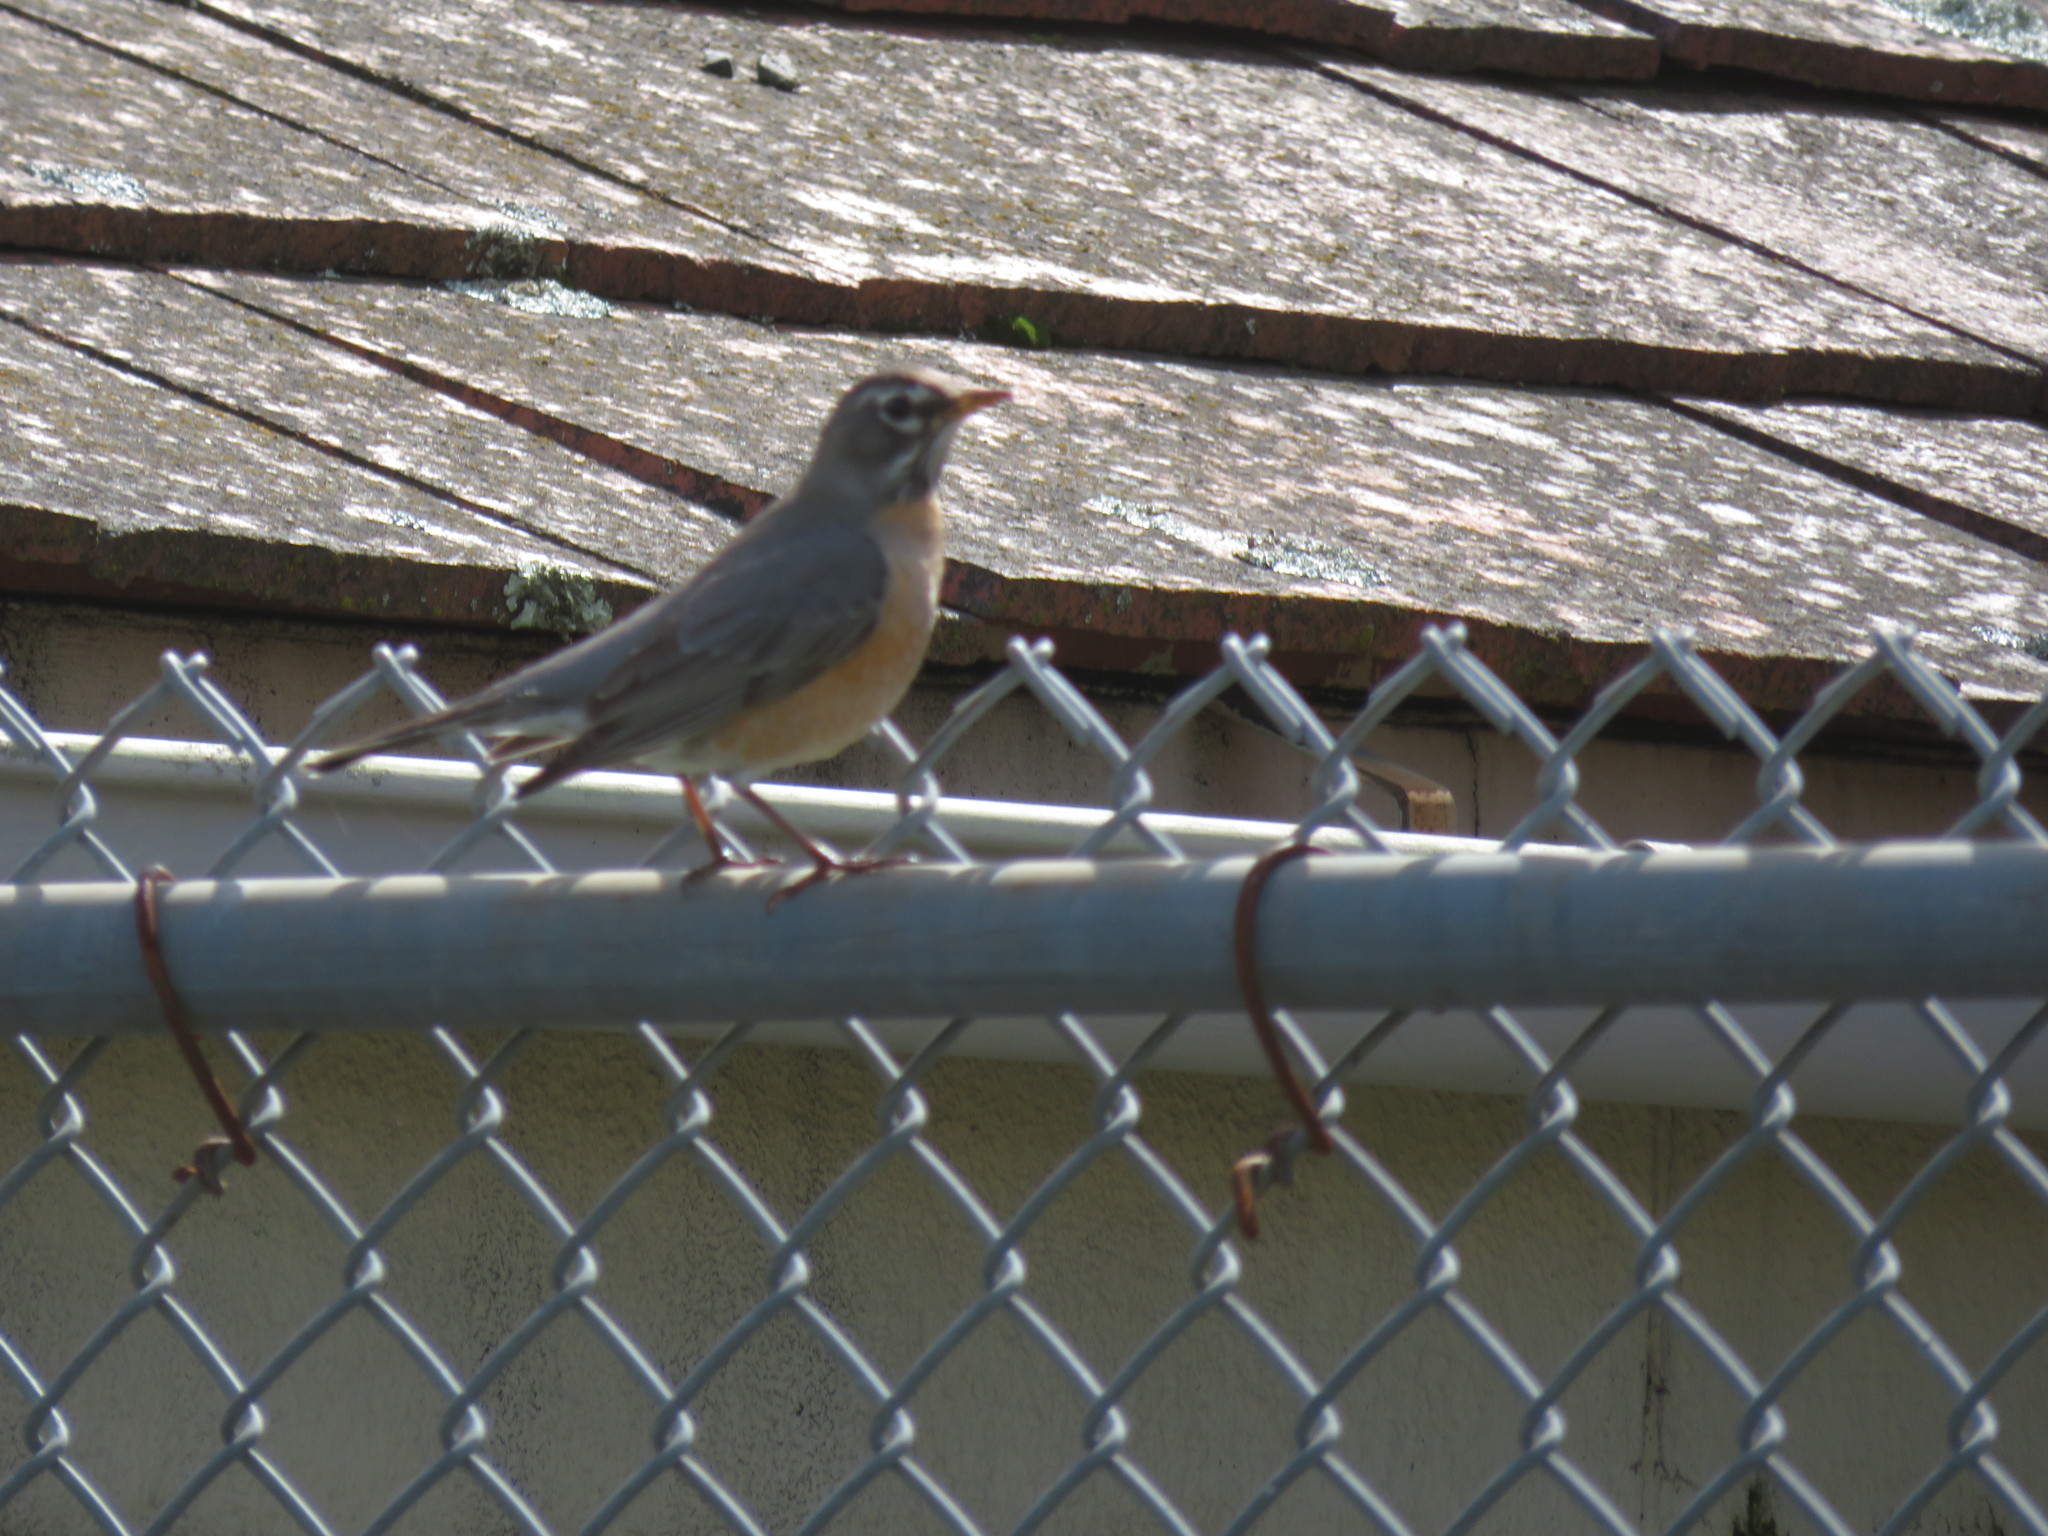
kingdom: Animalia
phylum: Chordata
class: Aves
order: Passeriformes
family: Turdidae
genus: Turdus
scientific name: Turdus migratorius
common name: American robin
